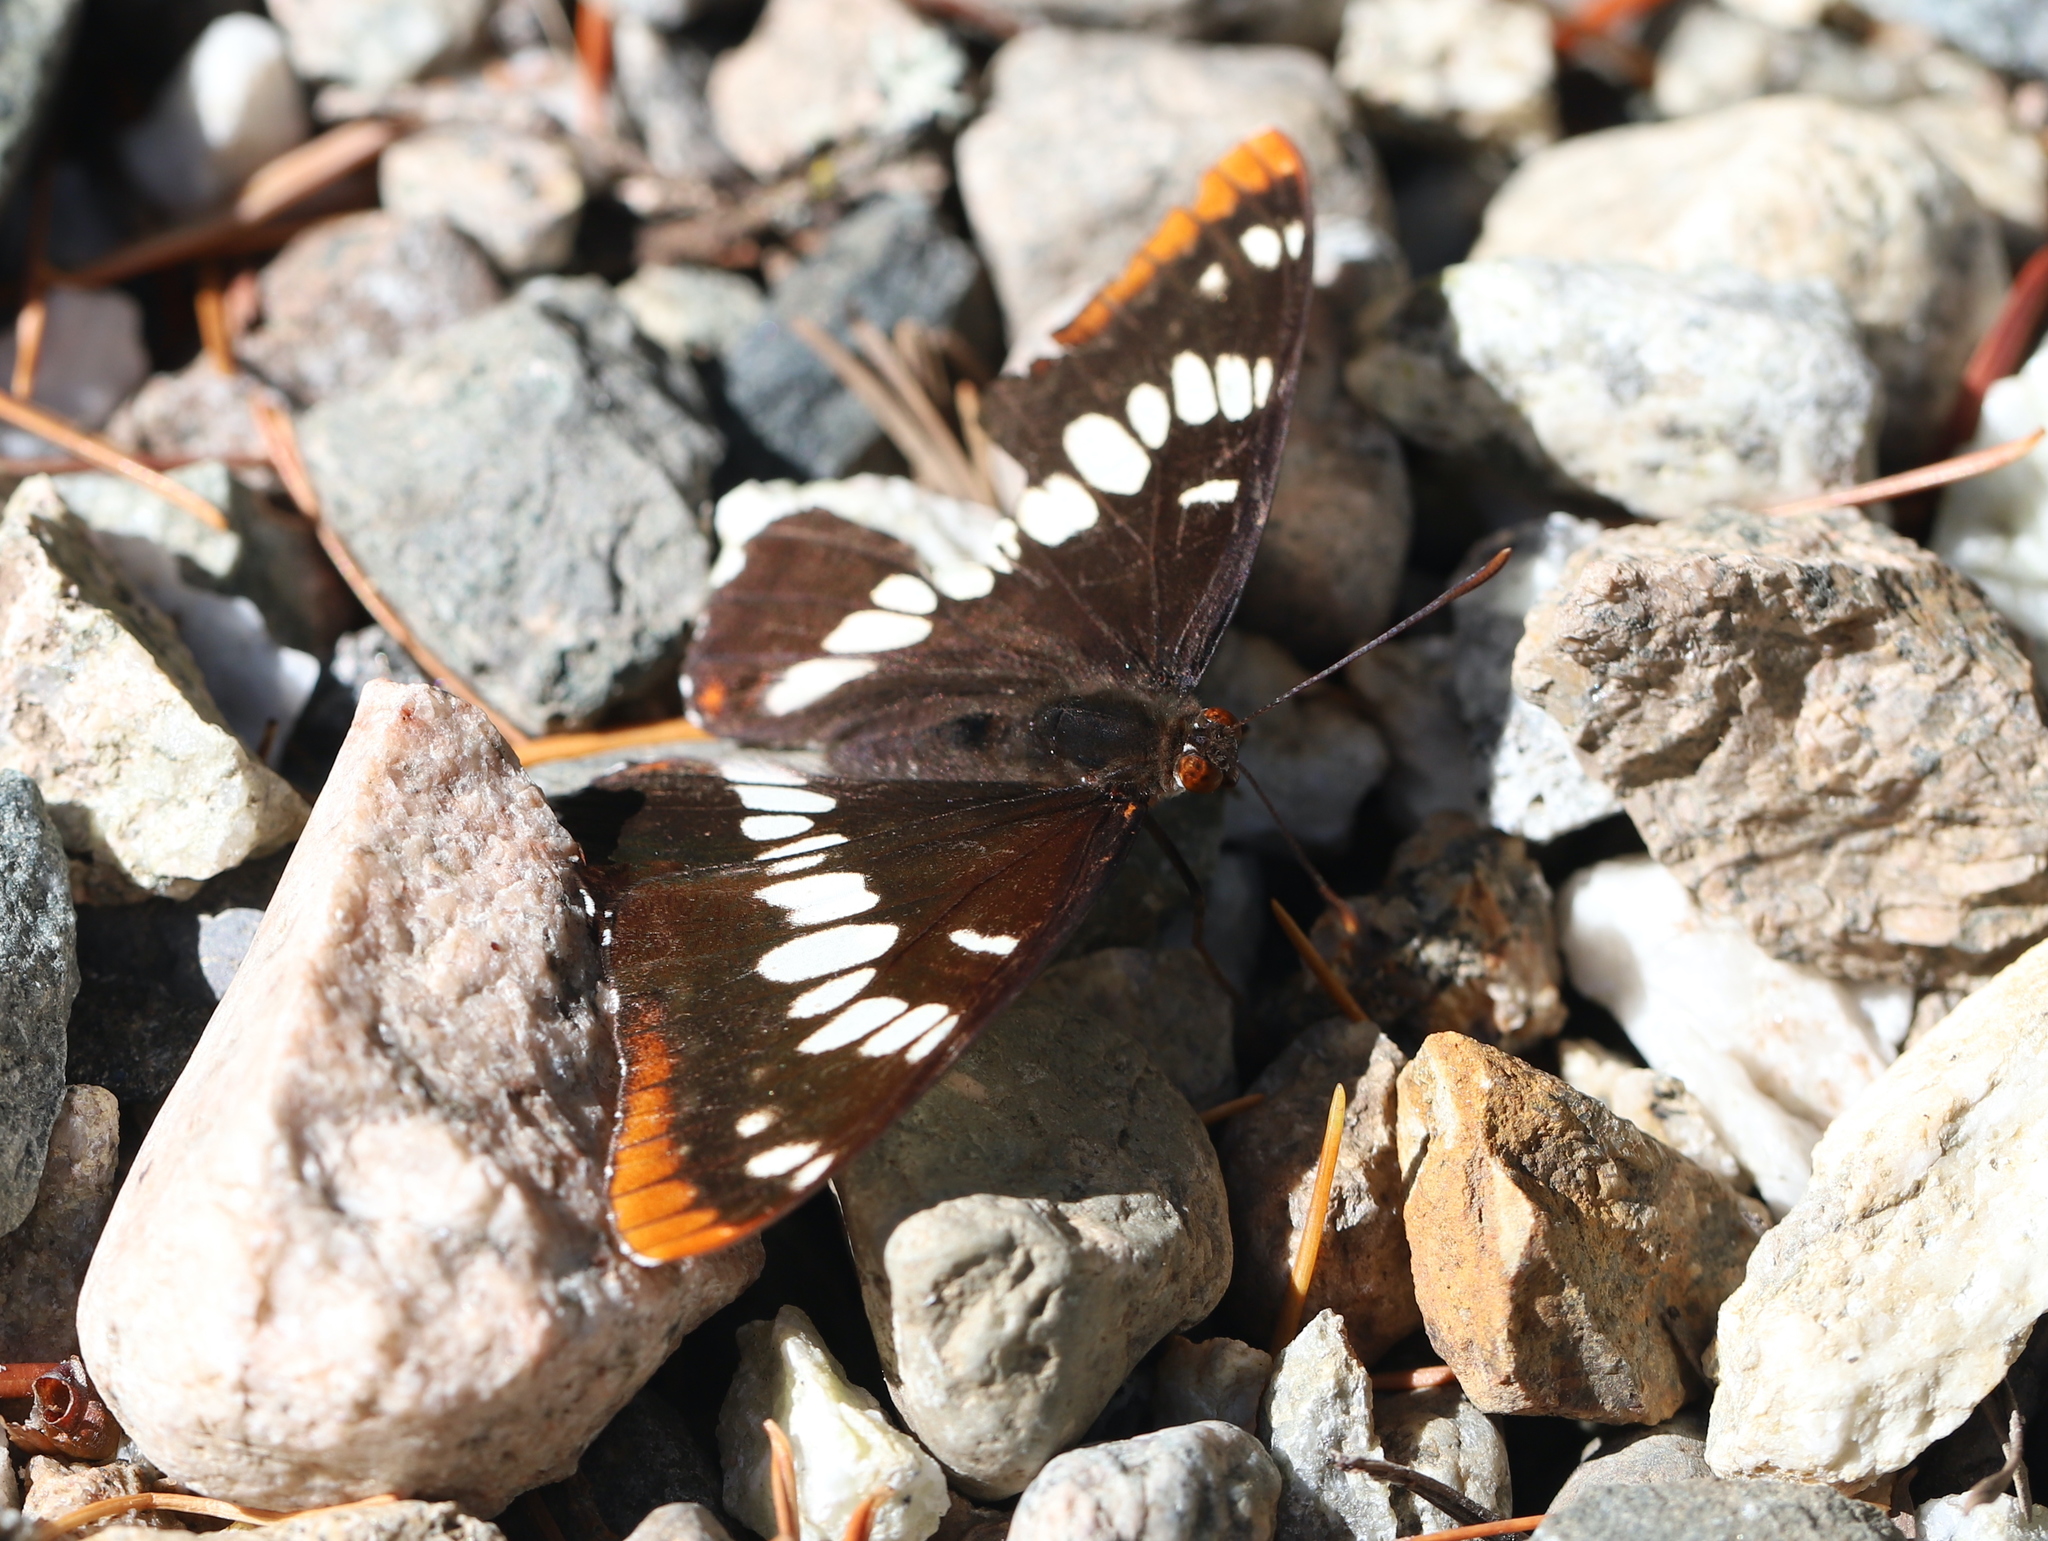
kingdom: Animalia
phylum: Arthropoda
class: Insecta
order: Lepidoptera
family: Nymphalidae
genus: Limenitis
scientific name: Limenitis lorquini
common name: Lorquin's admiral
